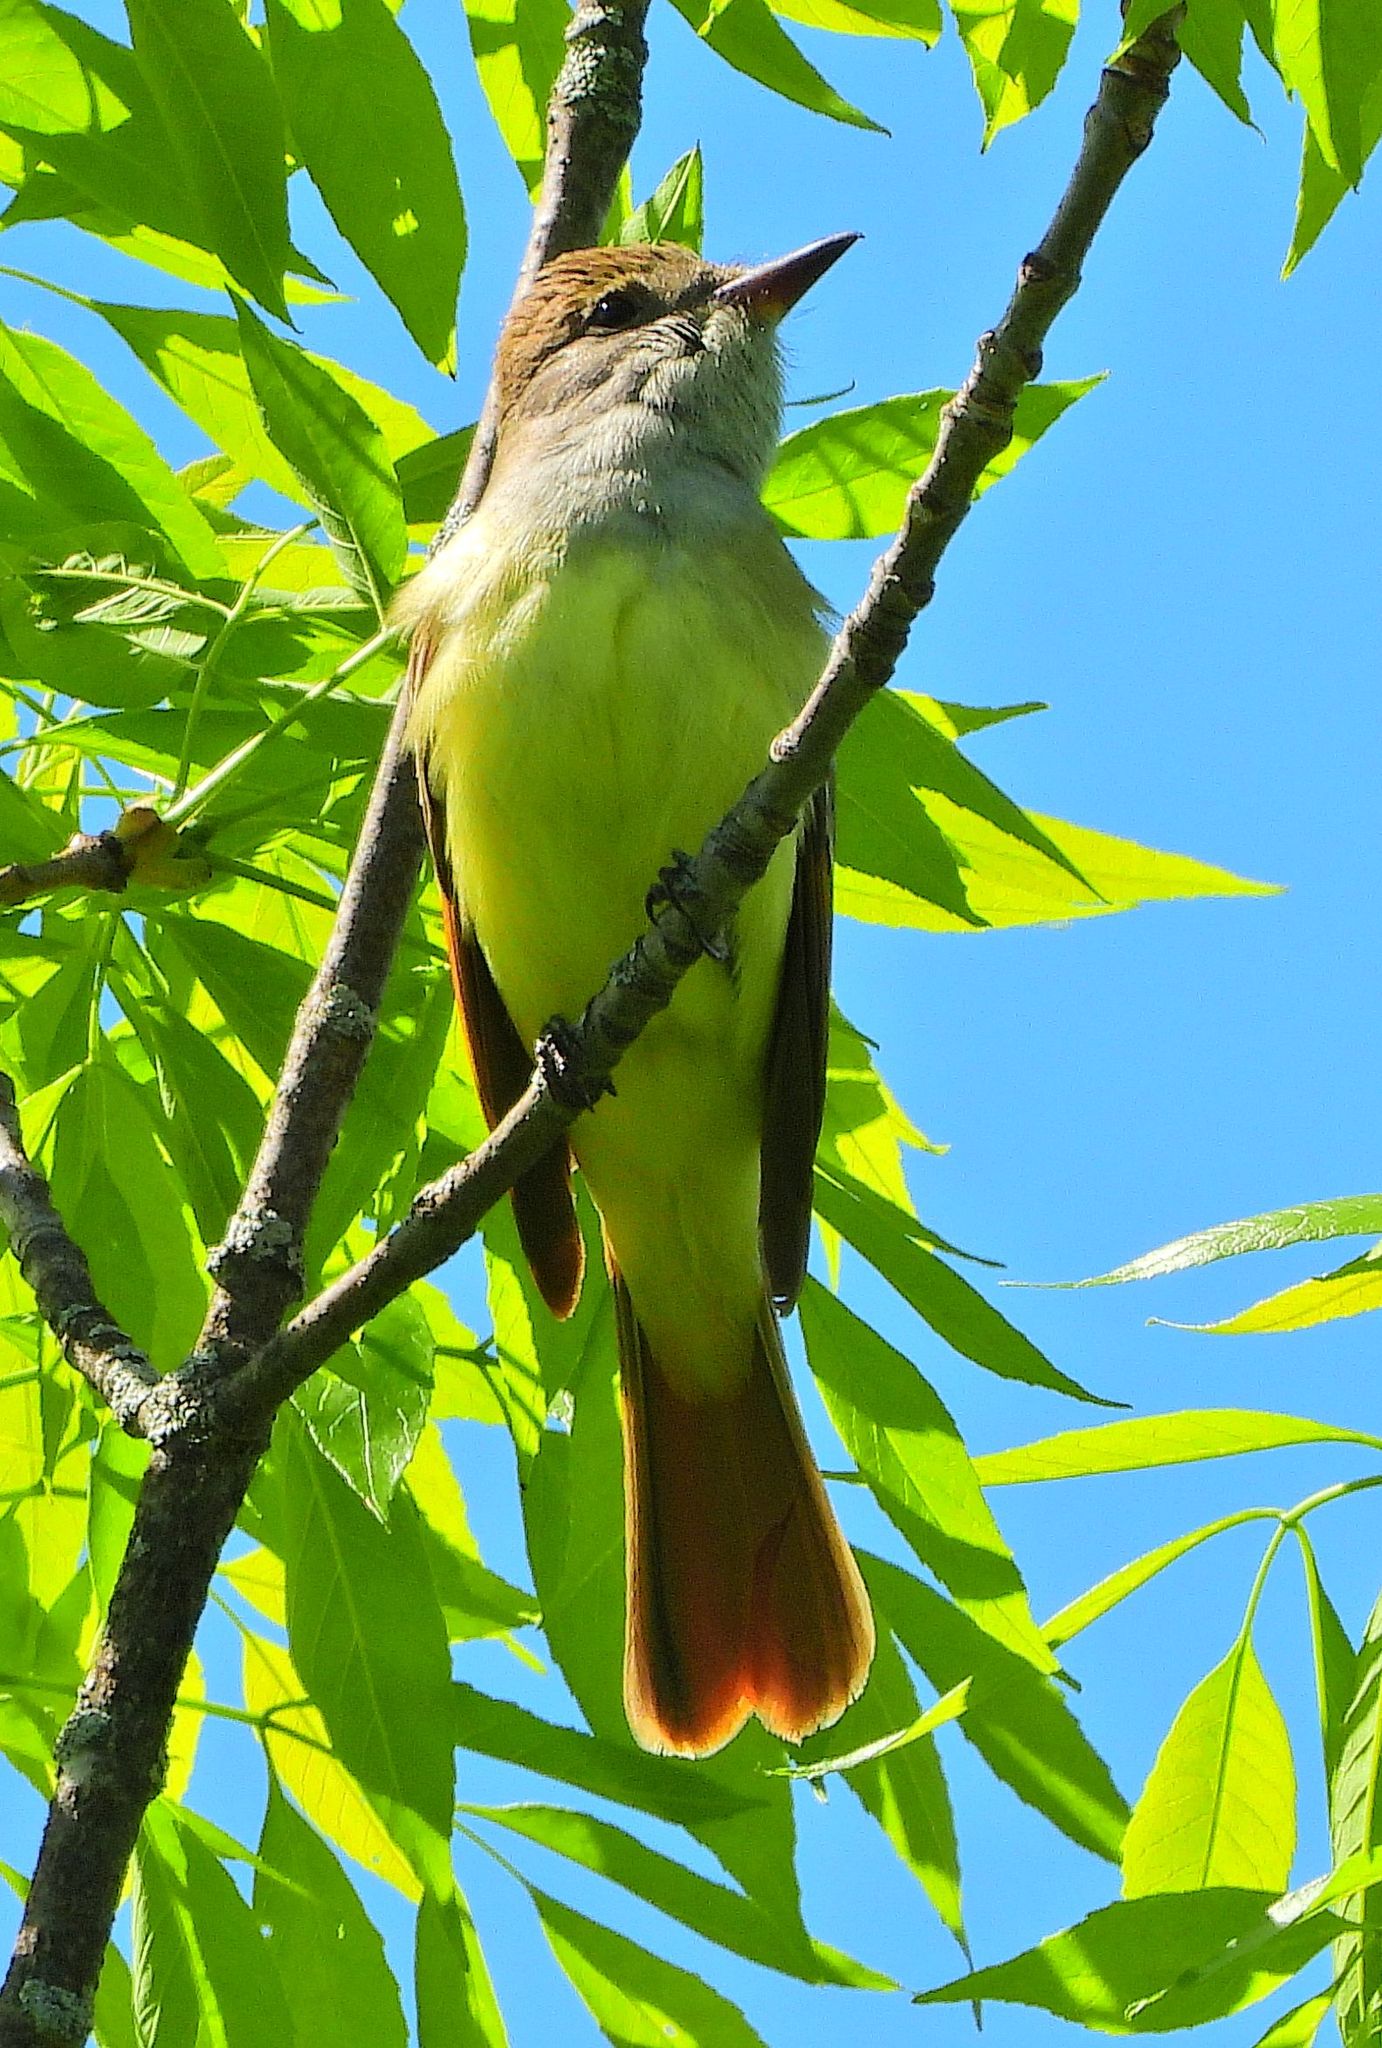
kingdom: Animalia
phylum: Chordata
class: Aves
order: Passeriformes
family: Tyrannidae
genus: Myiarchus
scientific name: Myiarchus crinitus
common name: Great crested flycatcher
